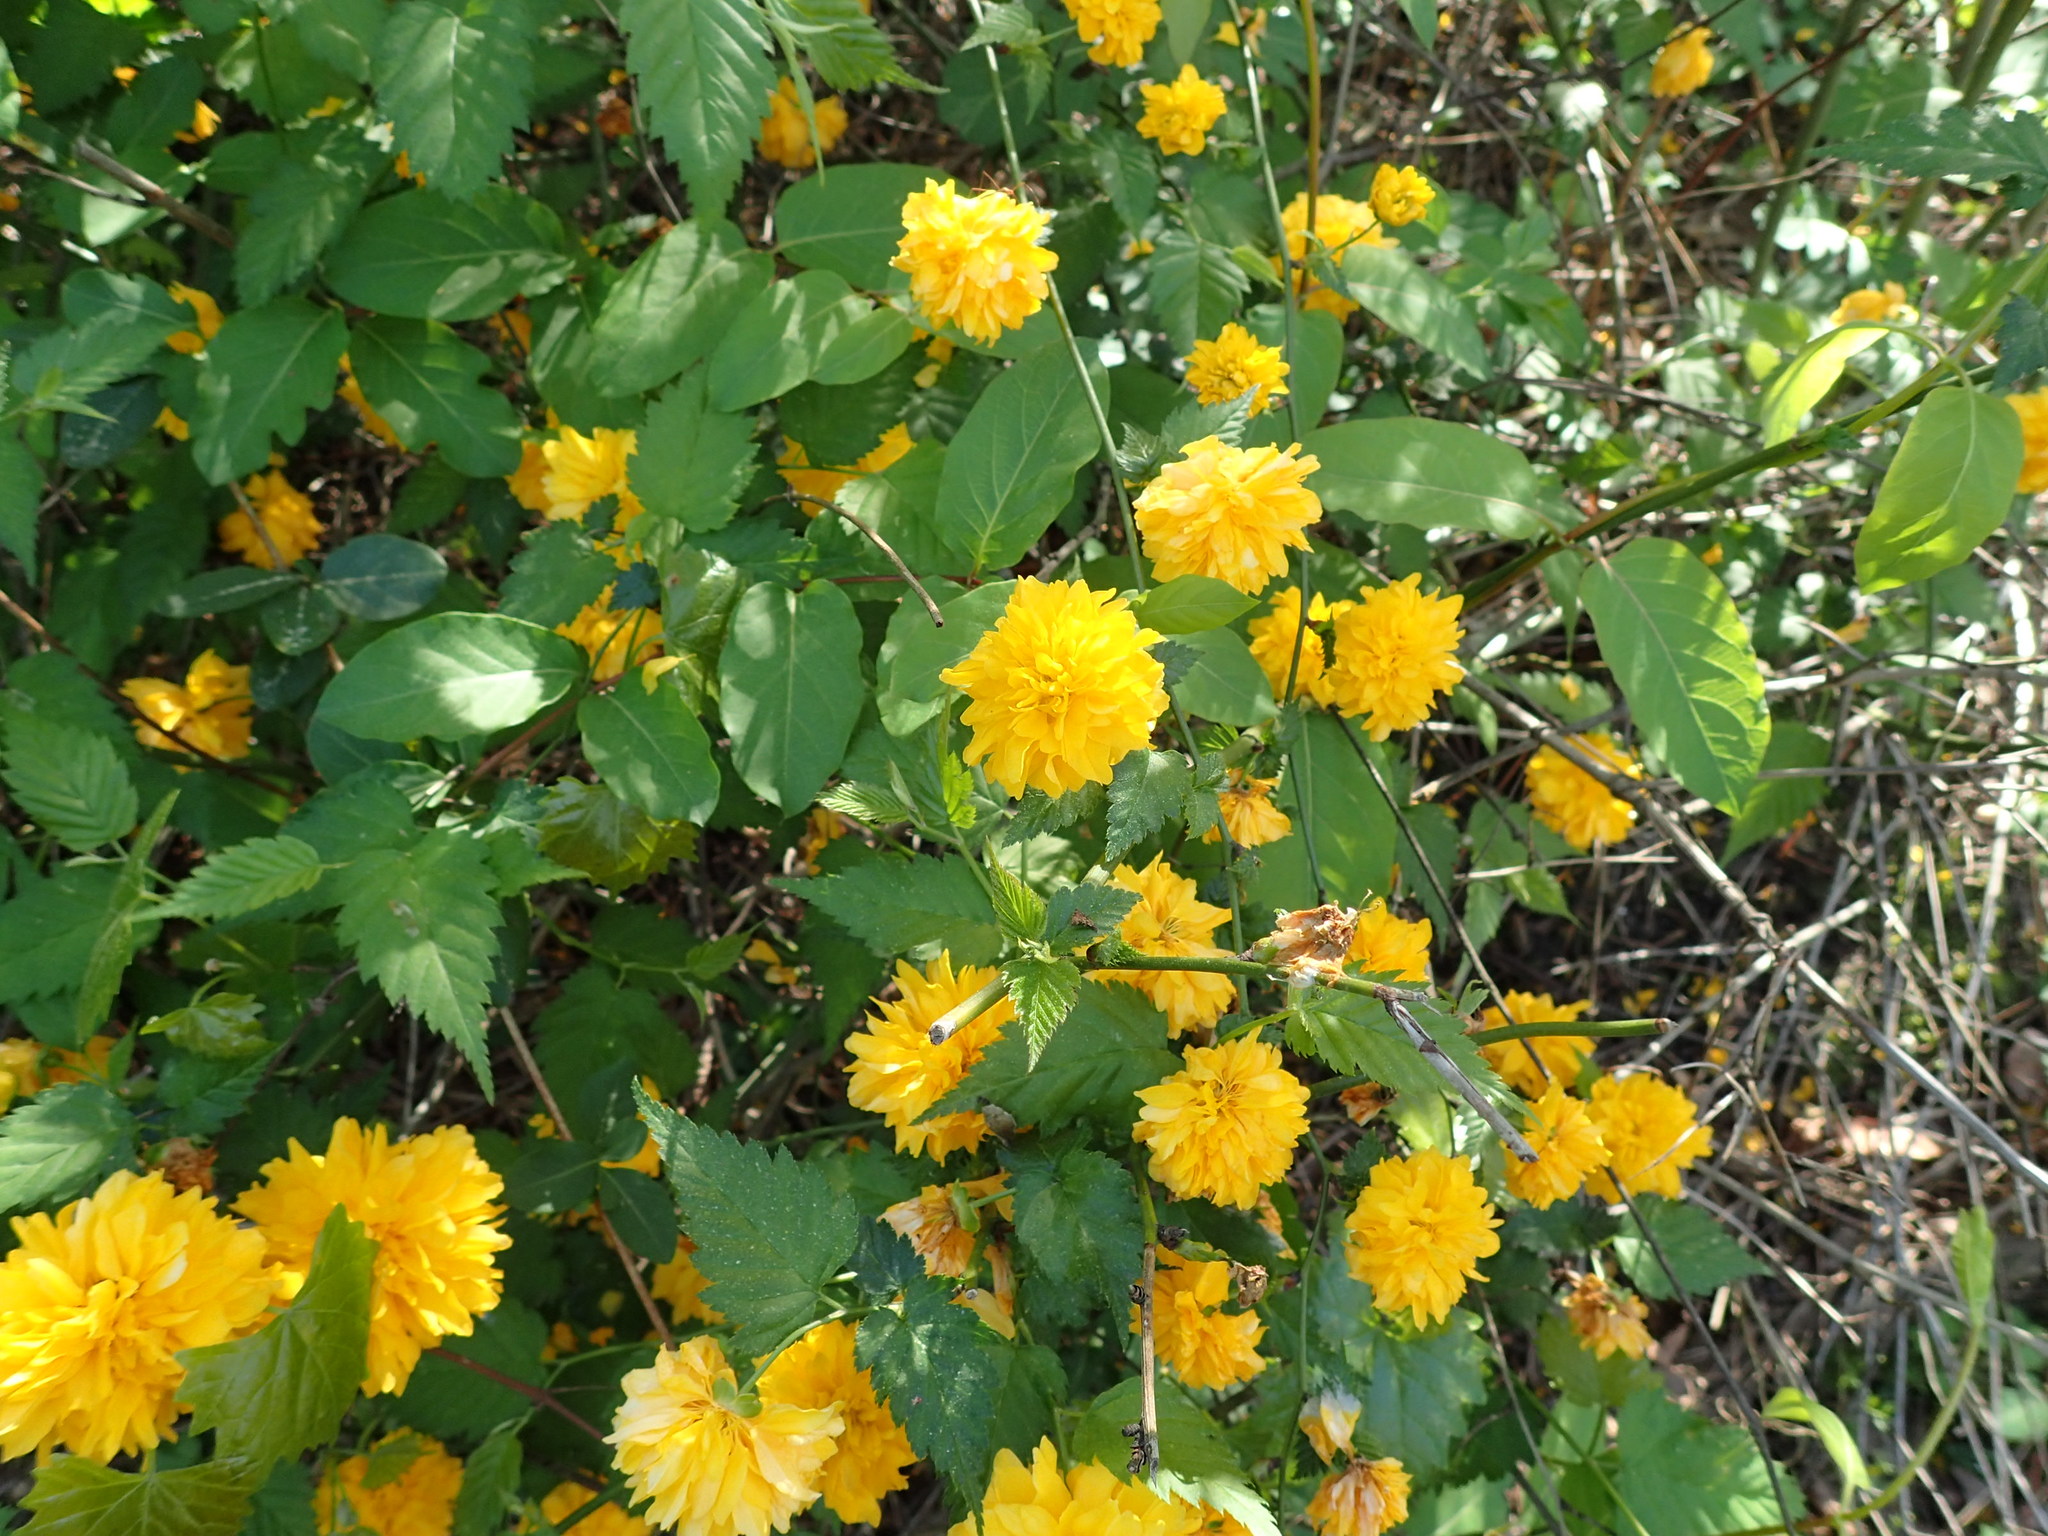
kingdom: Plantae
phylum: Tracheophyta
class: Magnoliopsida
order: Rosales
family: Rosaceae
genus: Kerria
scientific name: Kerria japonica
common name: Japanese kerria
